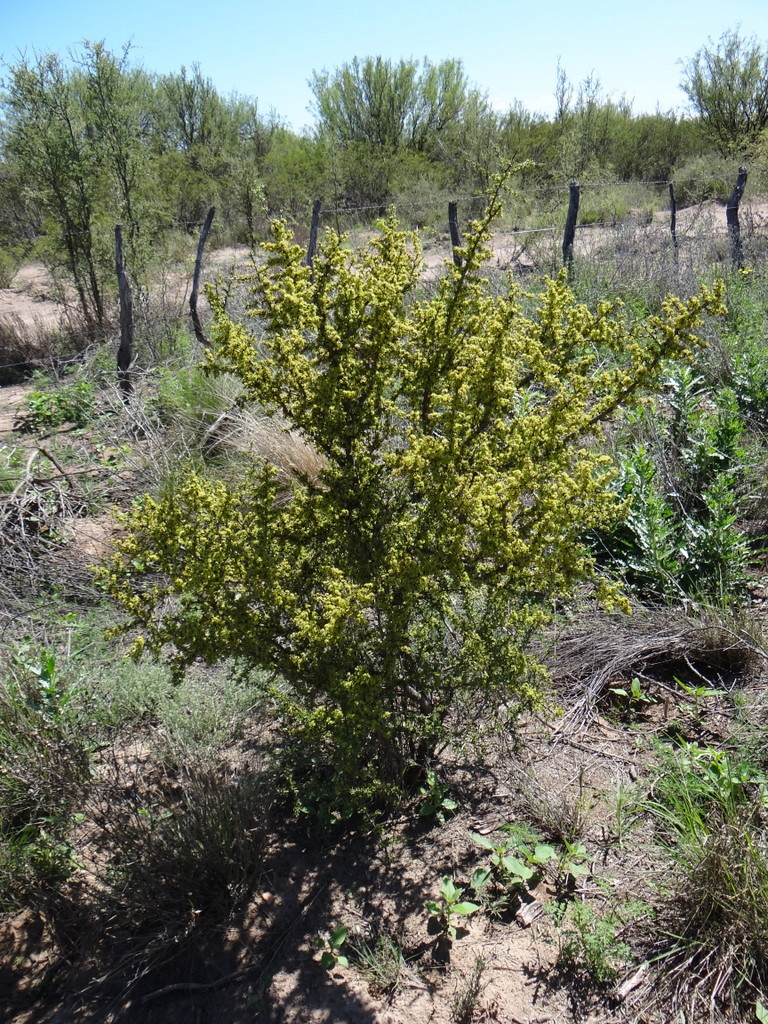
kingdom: Plantae
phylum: Tracheophyta
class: Magnoliopsida
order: Rosales
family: Rhamnaceae
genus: Condalia
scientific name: Condalia microphylla
